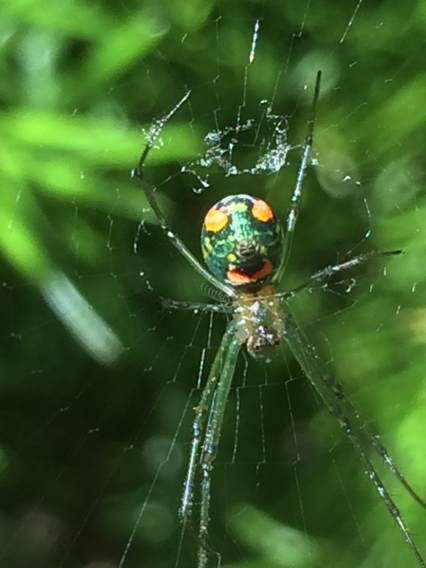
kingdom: Animalia
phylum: Arthropoda
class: Arachnida
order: Araneae
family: Tetragnathidae
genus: Leucauge
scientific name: Leucauge argyrobapta
